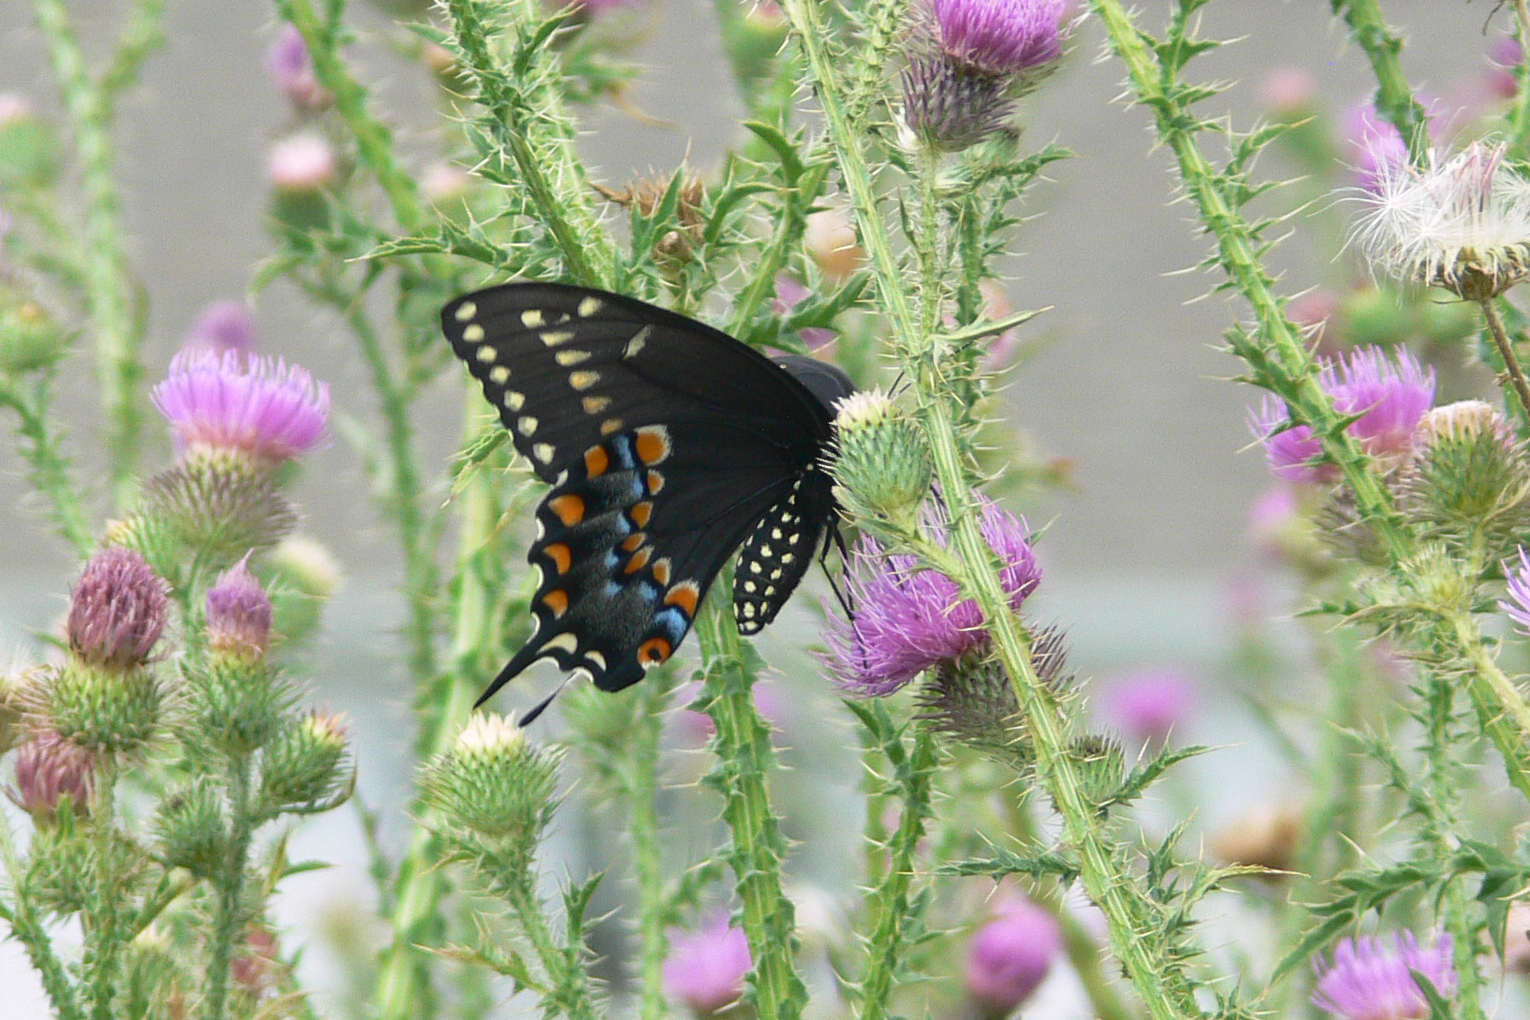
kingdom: Animalia
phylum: Arthropoda
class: Insecta
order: Lepidoptera
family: Papilionidae
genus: Papilio
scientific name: Papilio polyxenes
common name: Black swallowtail
